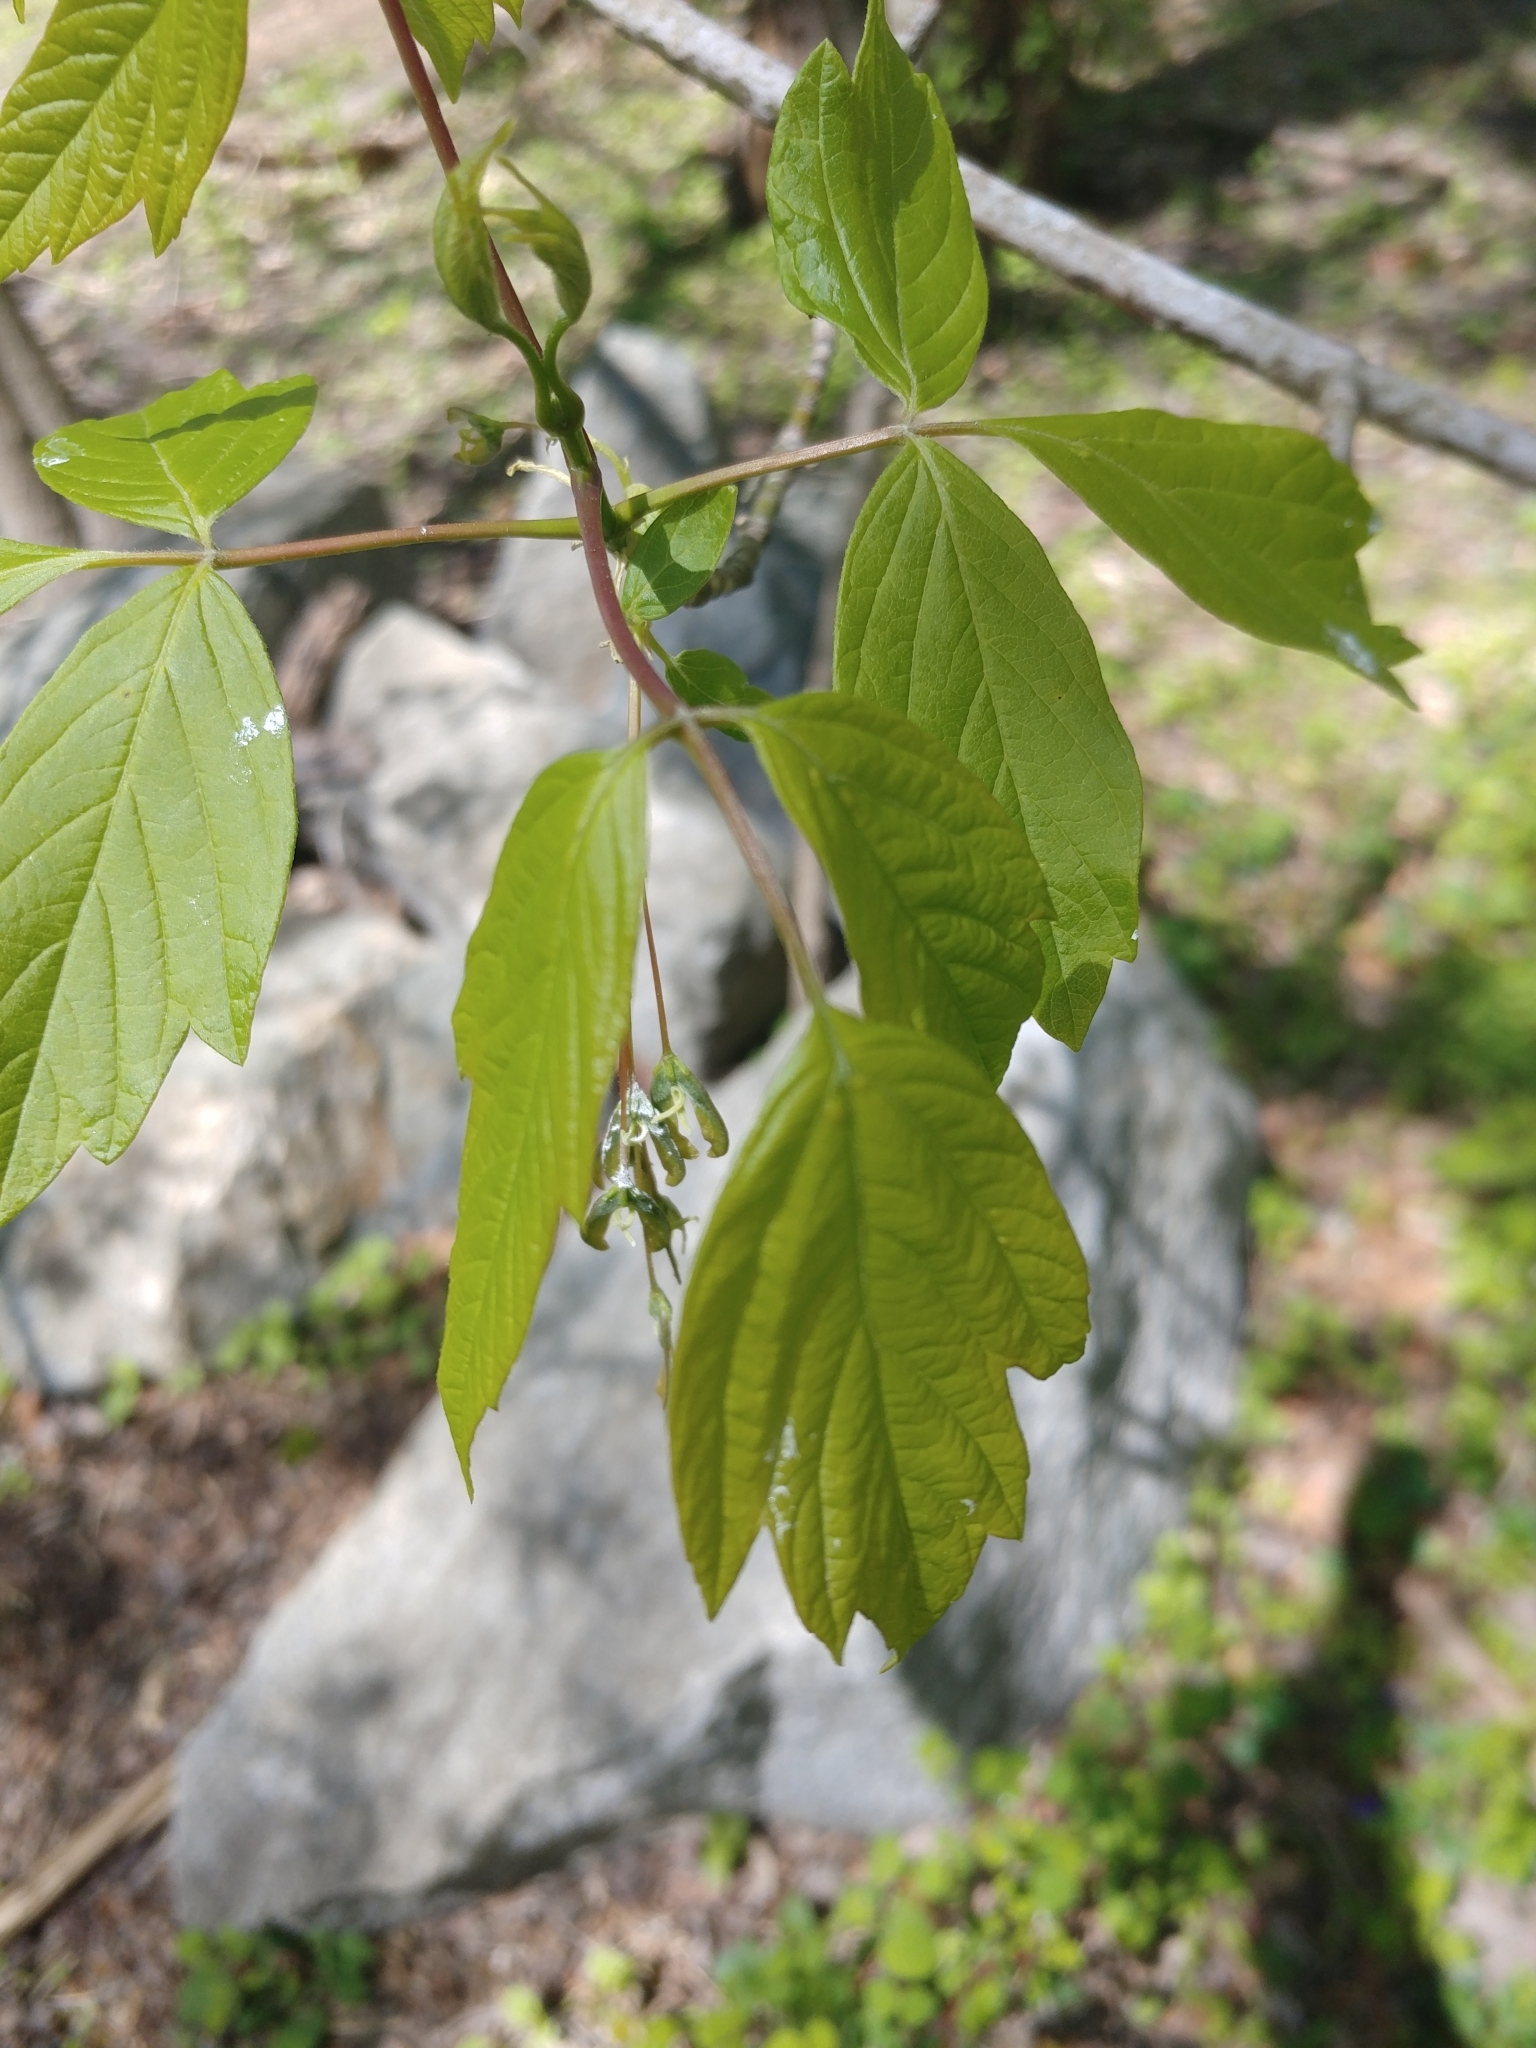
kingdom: Plantae
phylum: Tracheophyta
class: Magnoliopsida
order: Sapindales
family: Sapindaceae
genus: Acer
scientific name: Acer negundo
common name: Ashleaf maple
